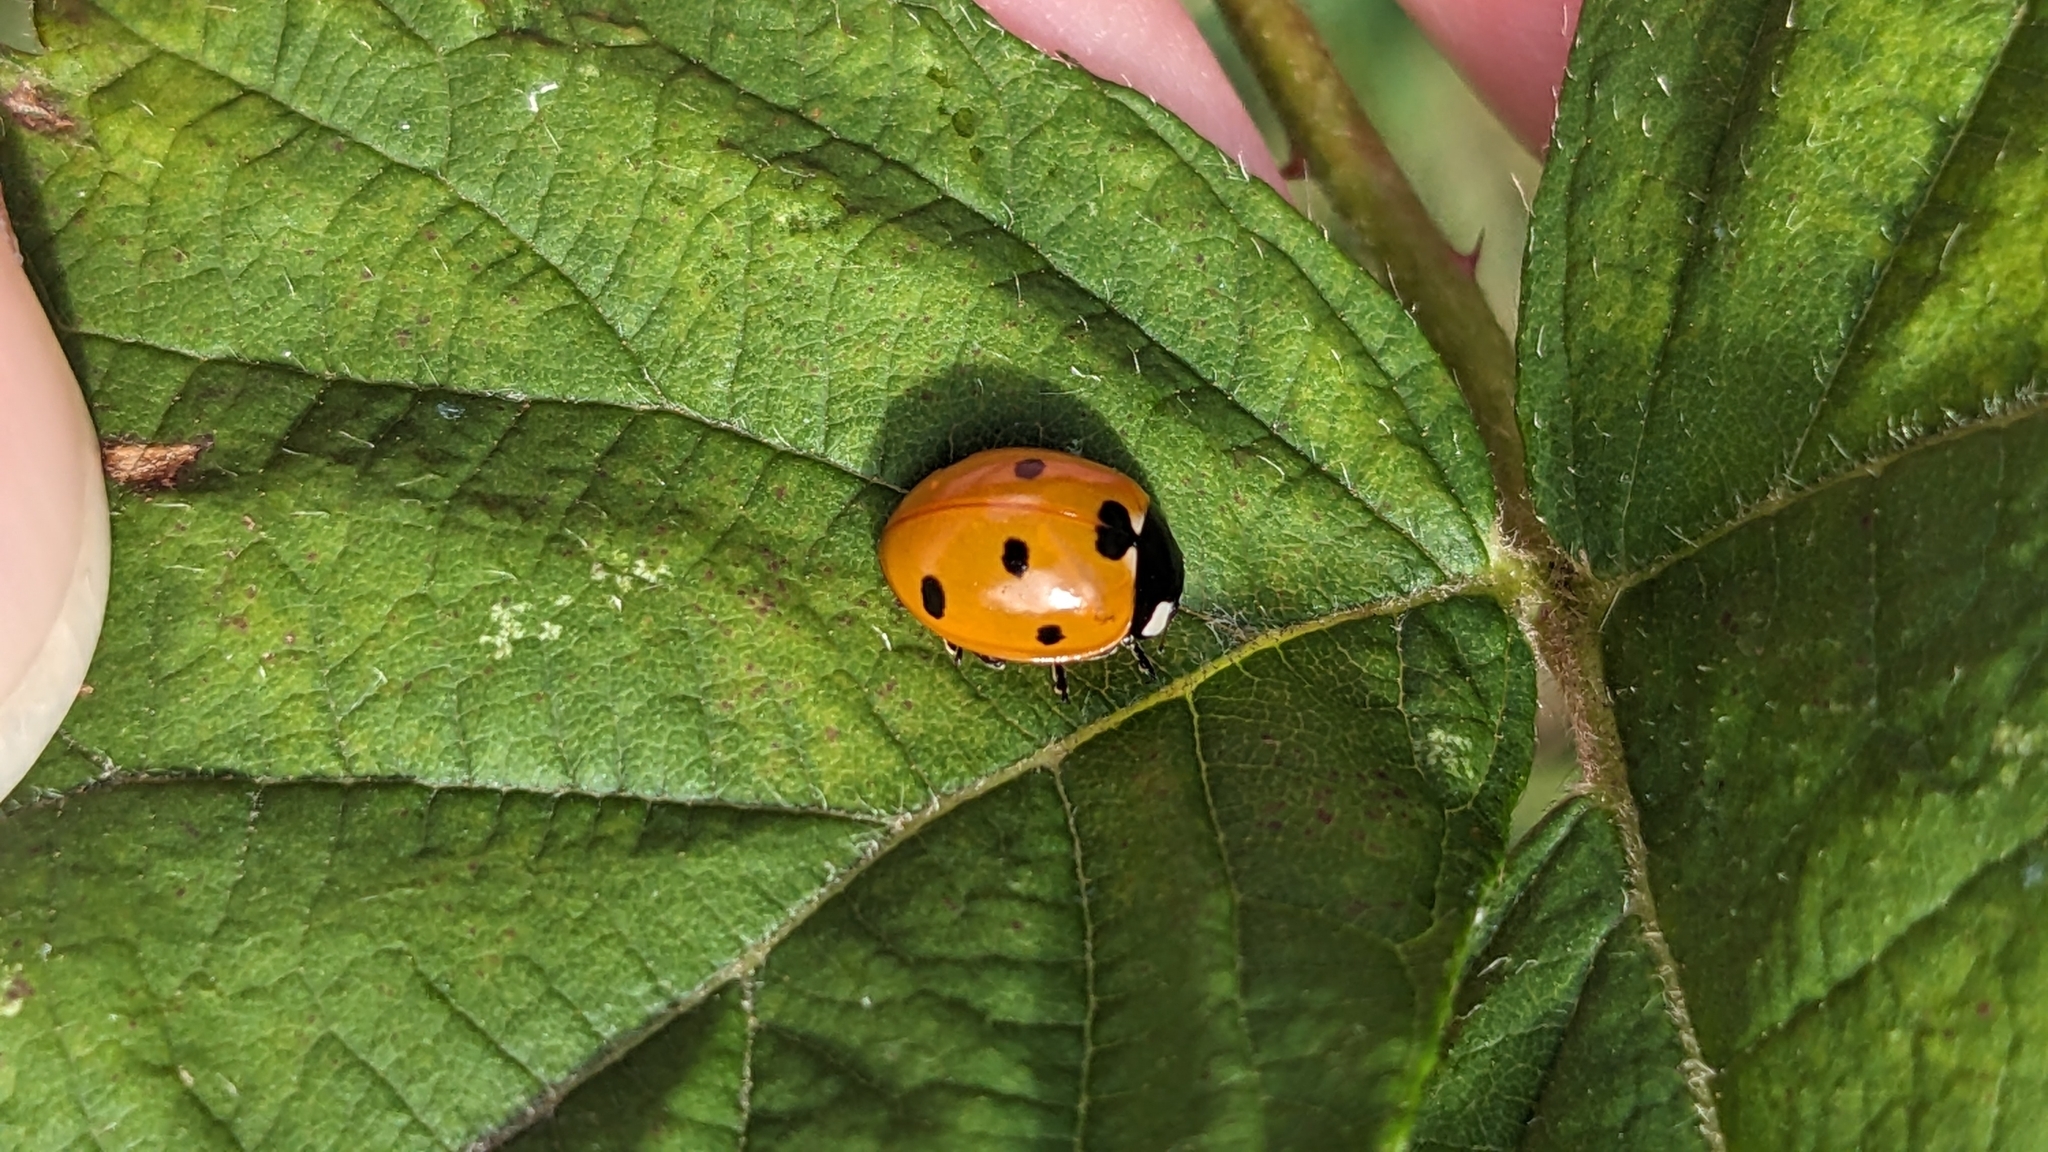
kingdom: Animalia
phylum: Arthropoda
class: Insecta
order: Coleoptera
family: Coccinellidae
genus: Coccinella
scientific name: Coccinella septempunctata
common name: Sevenspotted lady beetle
